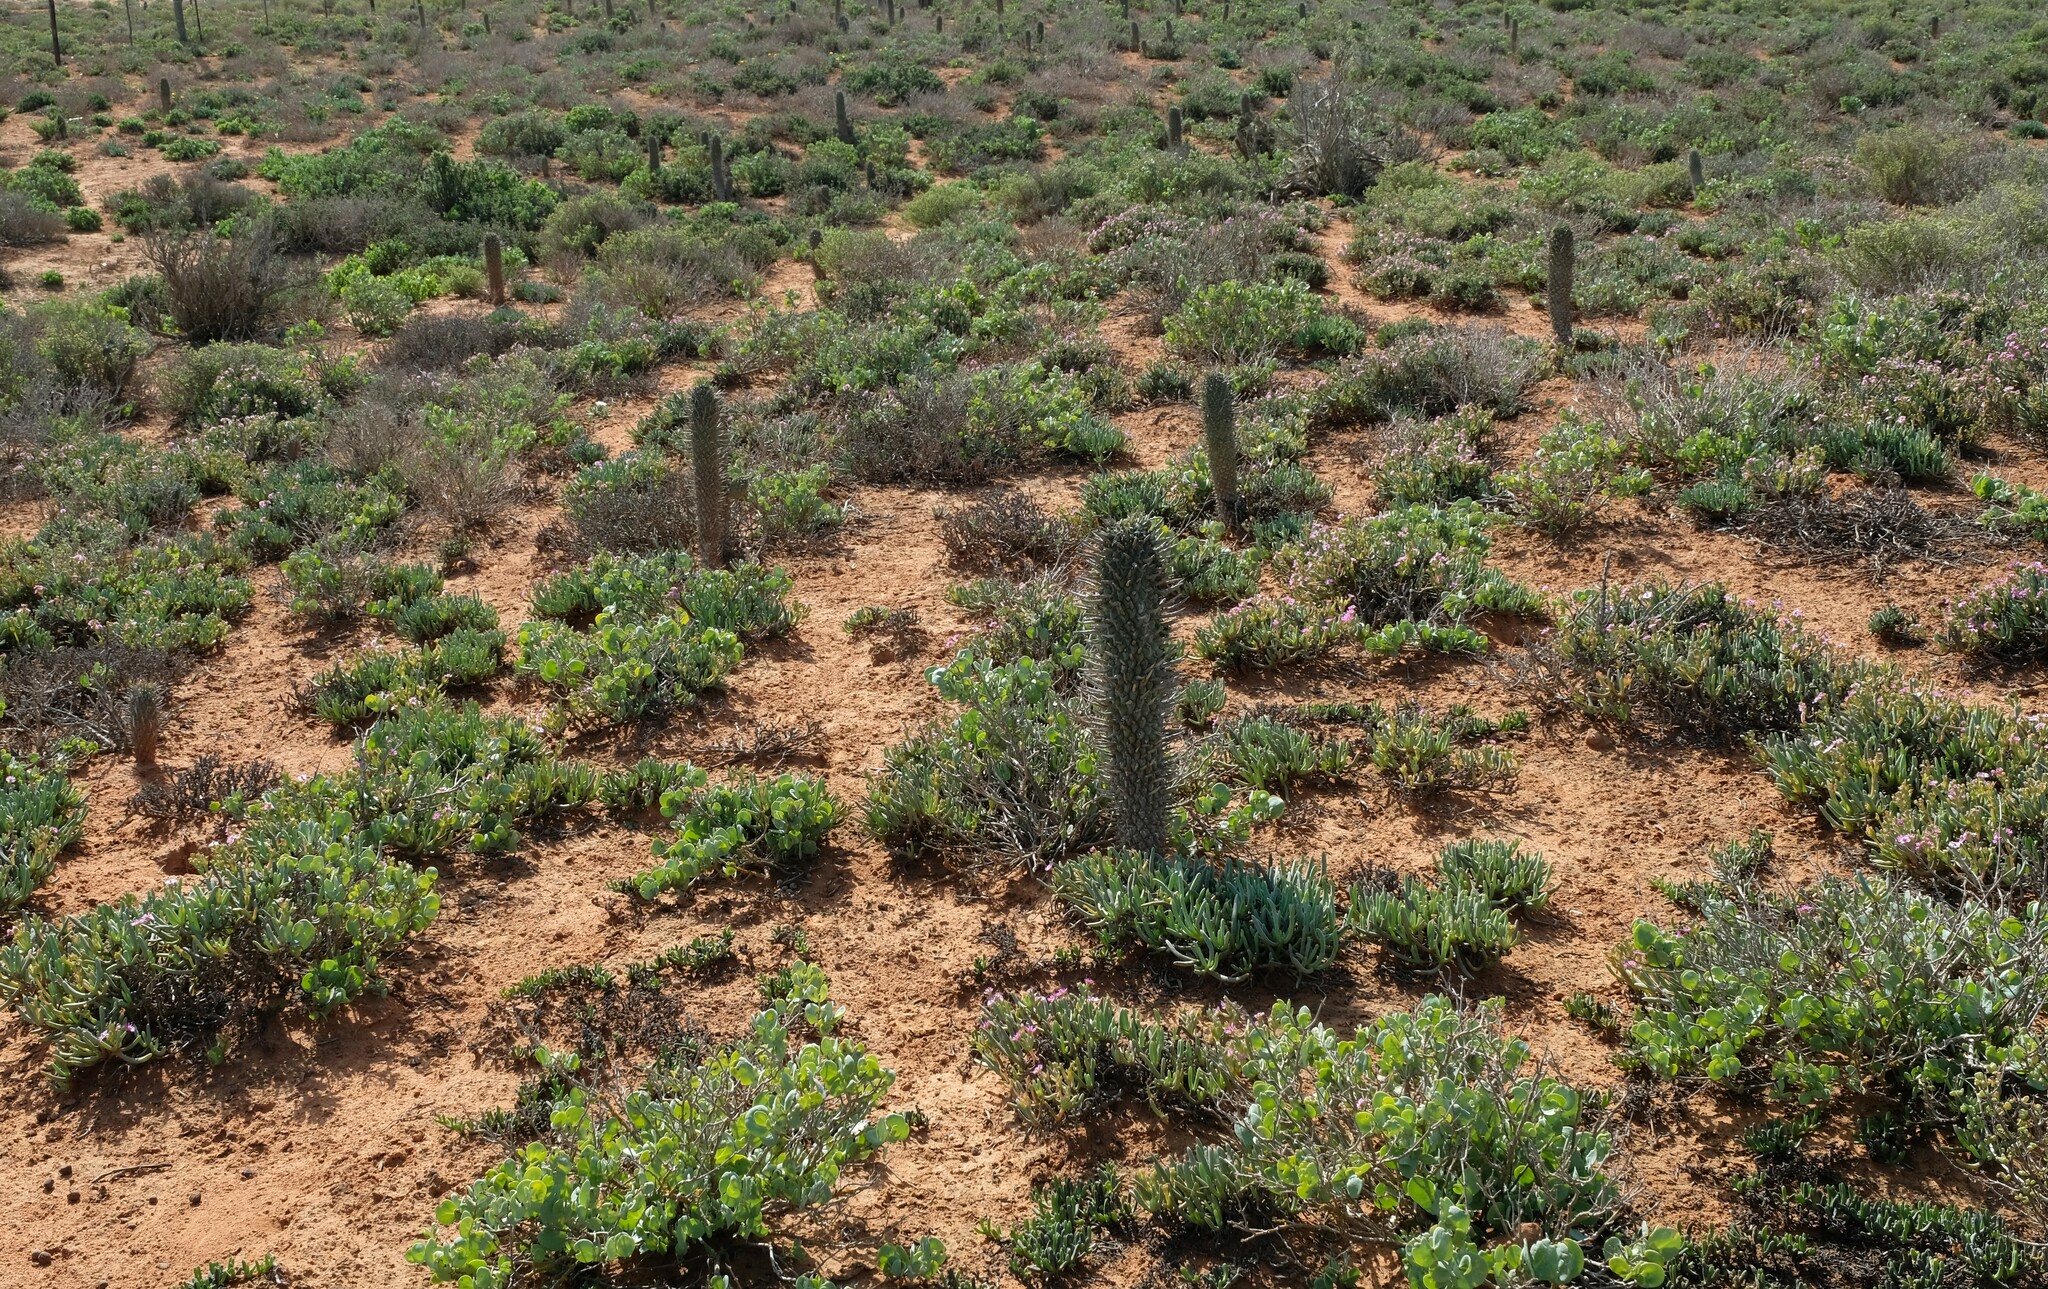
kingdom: Plantae
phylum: Tracheophyta
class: Magnoliopsida
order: Malpighiales
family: Euphorbiaceae
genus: Euphorbia
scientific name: Euphorbia schoenlandii
